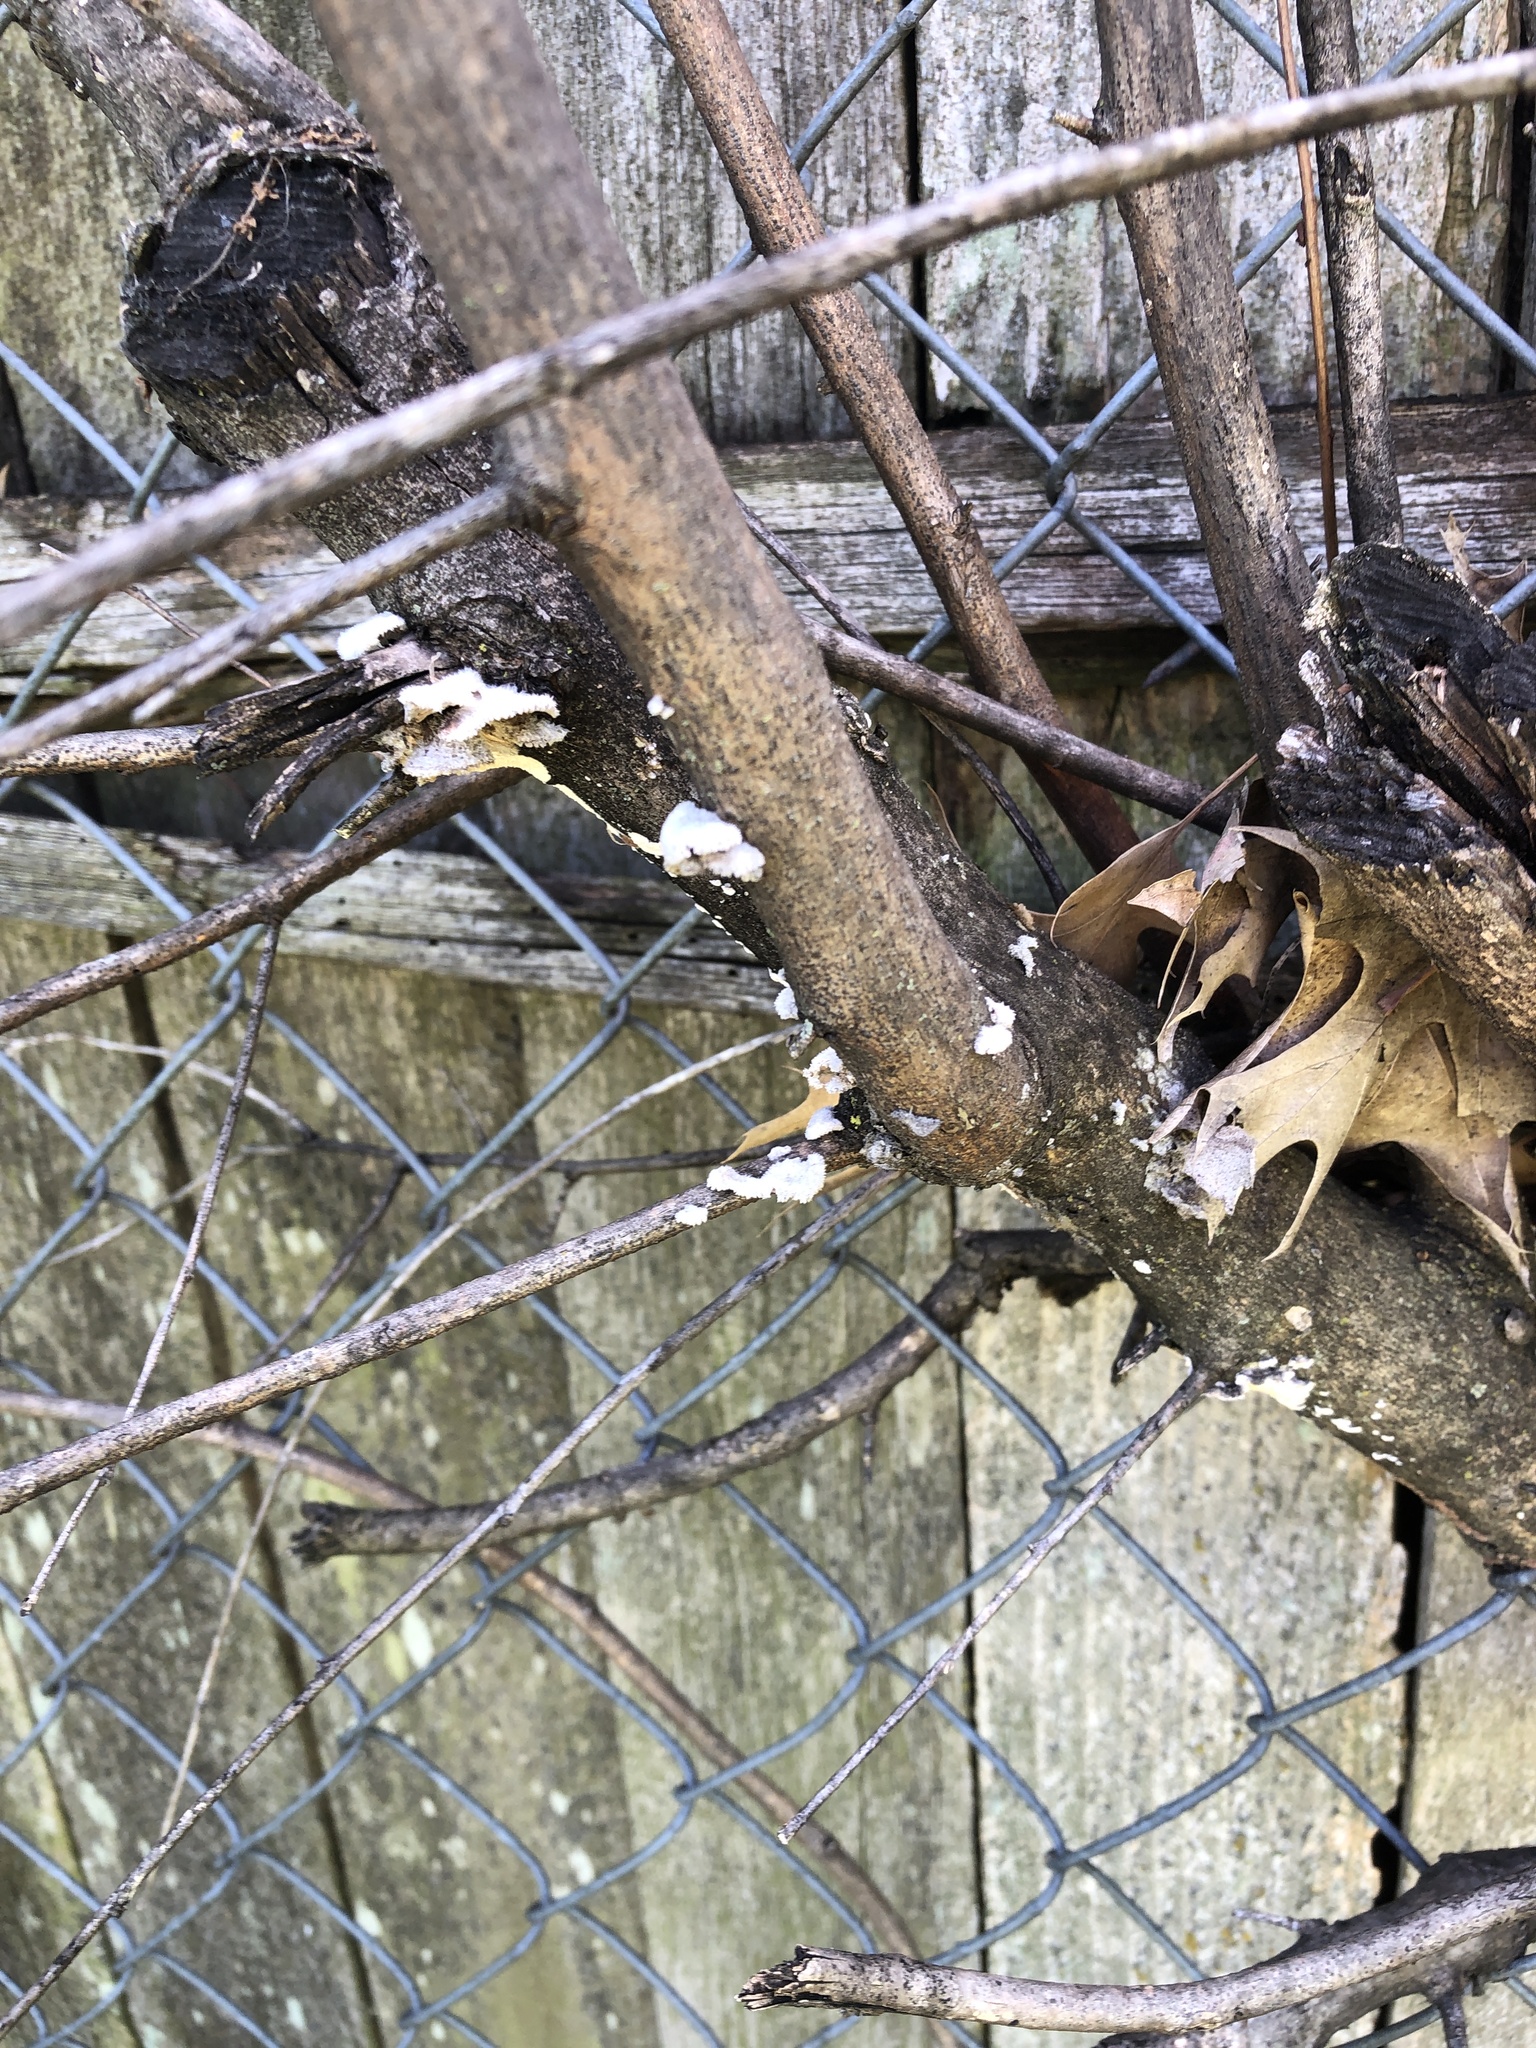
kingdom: Fungi
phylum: Basidiomycota
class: Agaricomycetes
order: Agaricales
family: Schizophyllaceae
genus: Schizophyllum
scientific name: Schizophyllum commune
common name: Common porecrust
